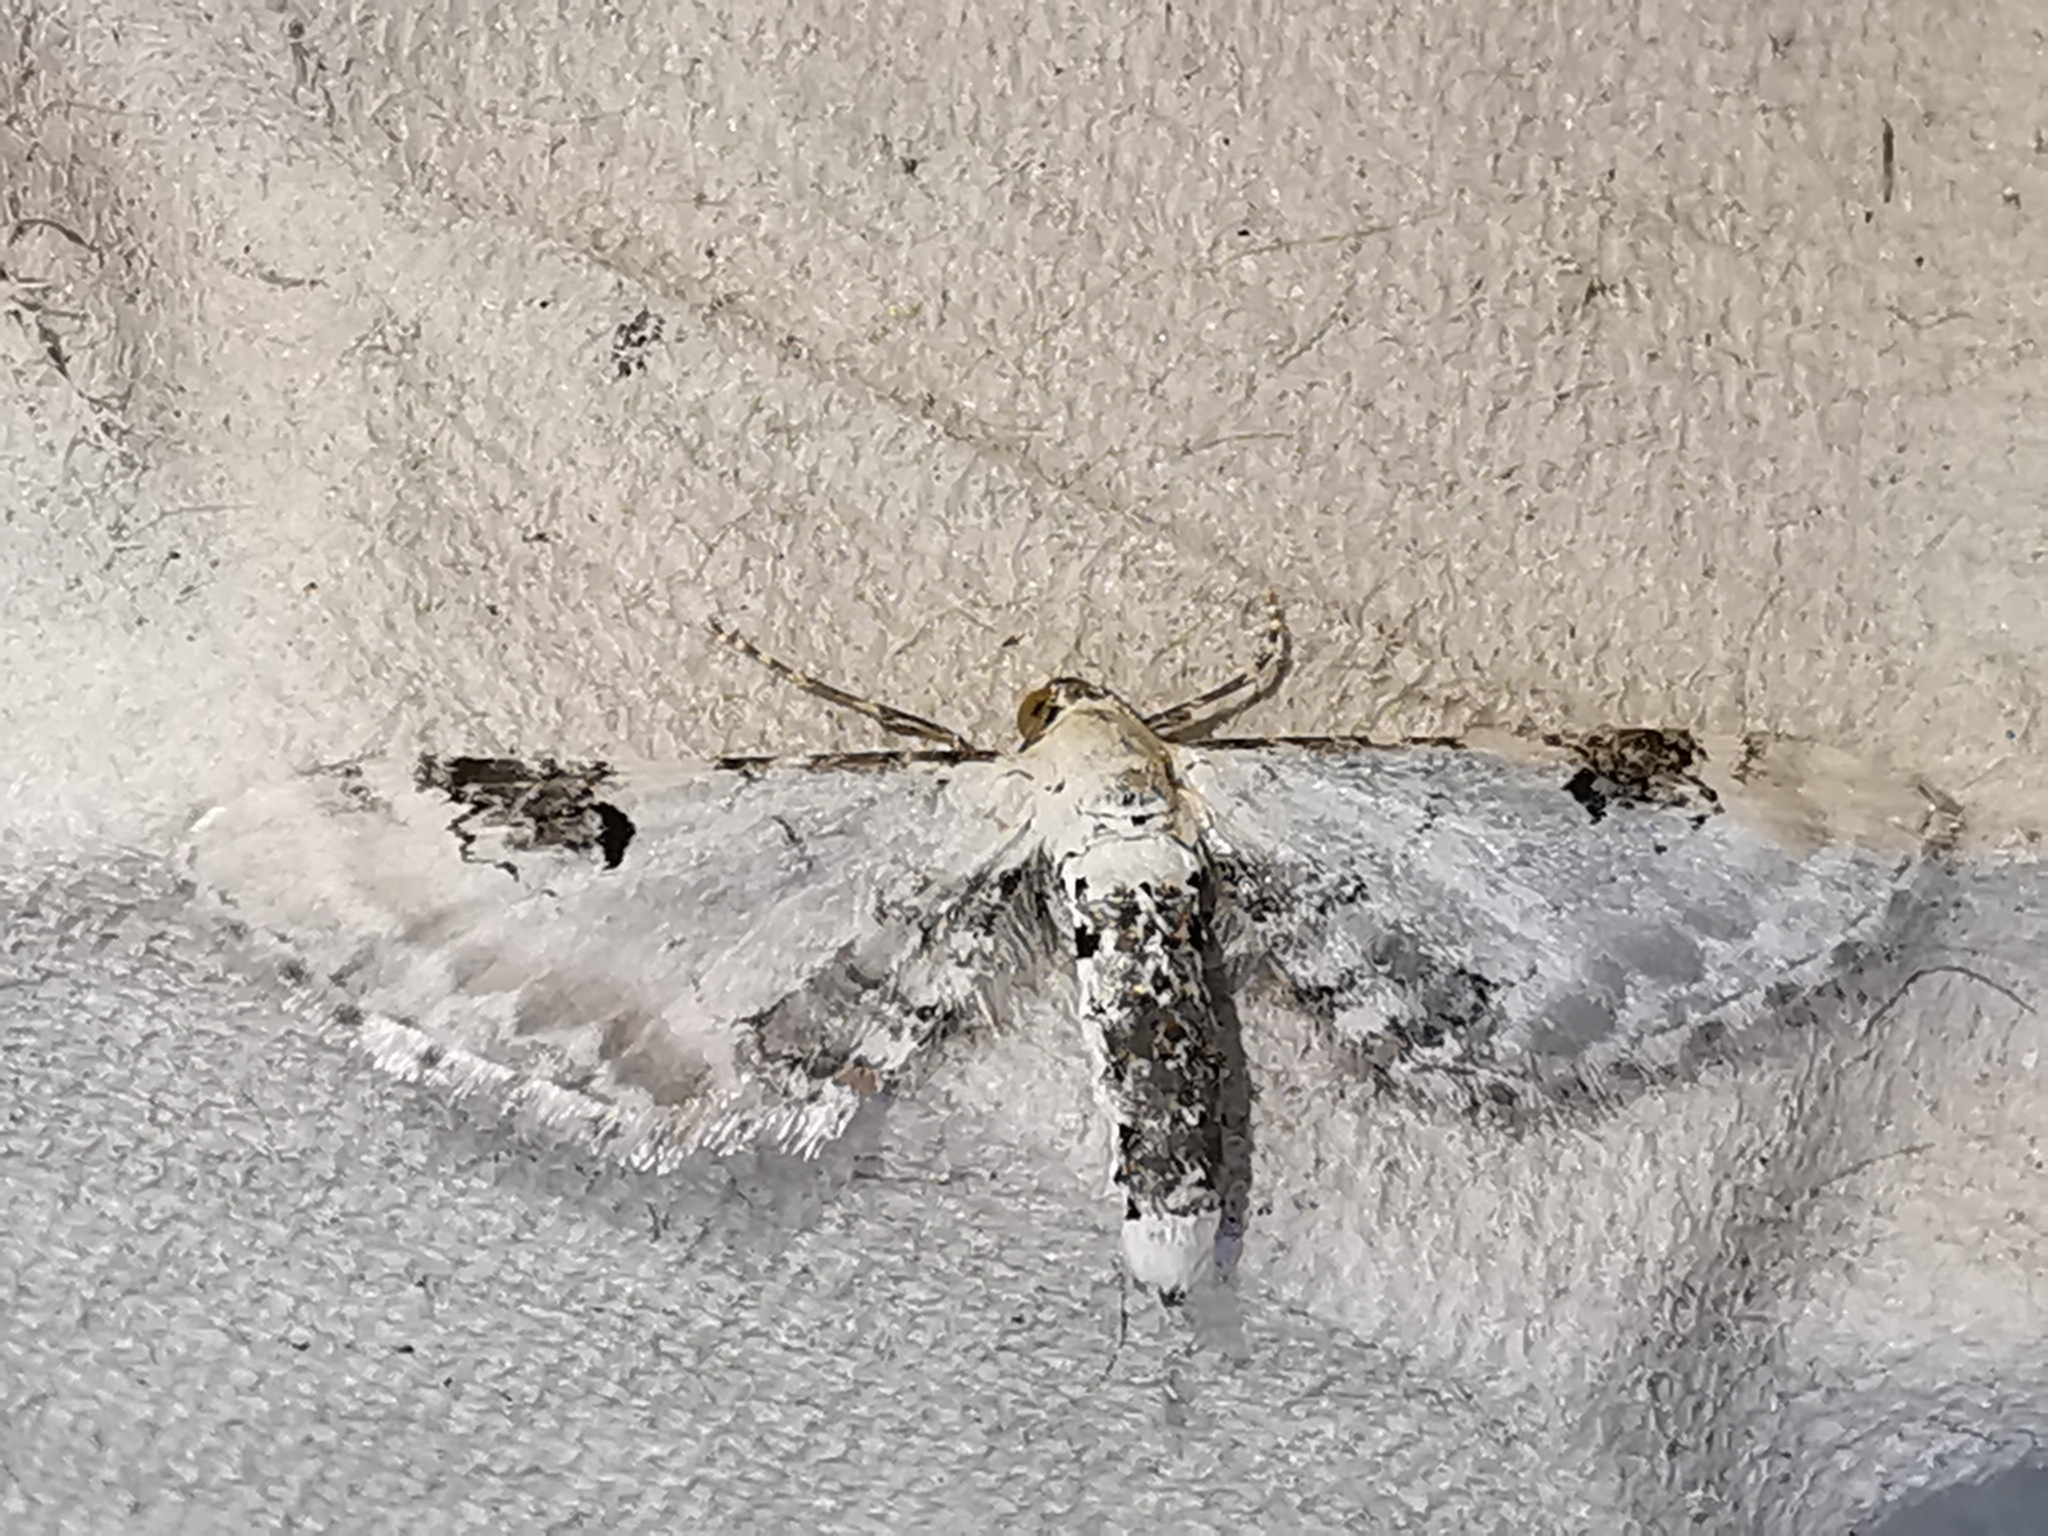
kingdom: Animalia
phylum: Arthropoda
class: Insecta
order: Lepidoptera
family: Geometridae
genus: Eupithecia
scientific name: Eupithecia centaureata
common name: Lime-speck pug
